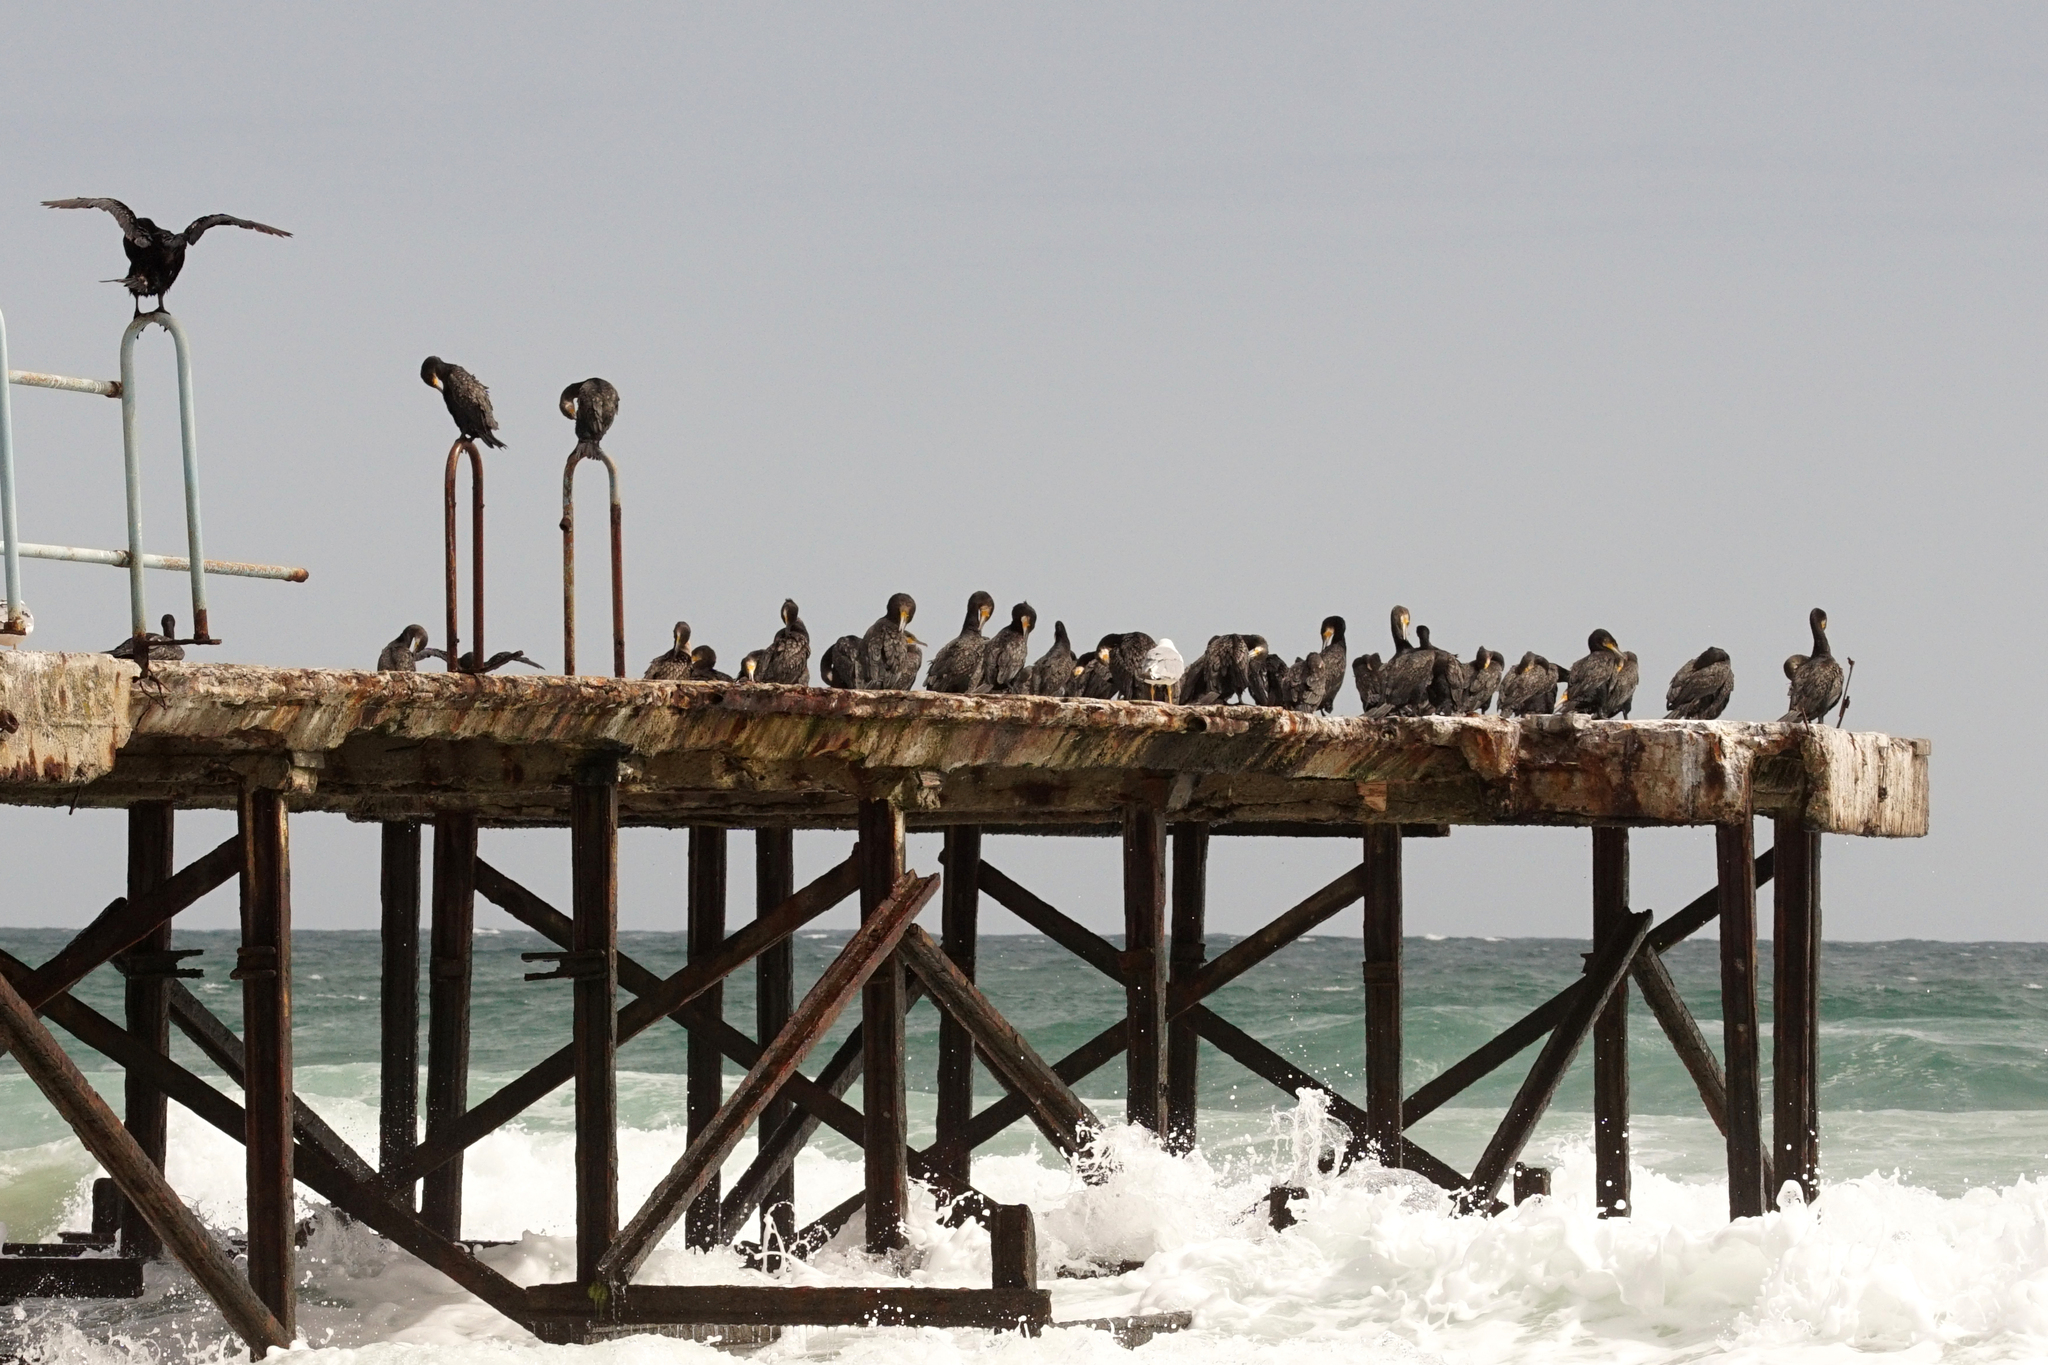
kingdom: Animalia
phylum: Chordata
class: Aves
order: Suliformes
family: Phalacrocoracidae
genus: Phalacrocorax
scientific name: Phalacrocorax carbo
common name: Great cormorant
